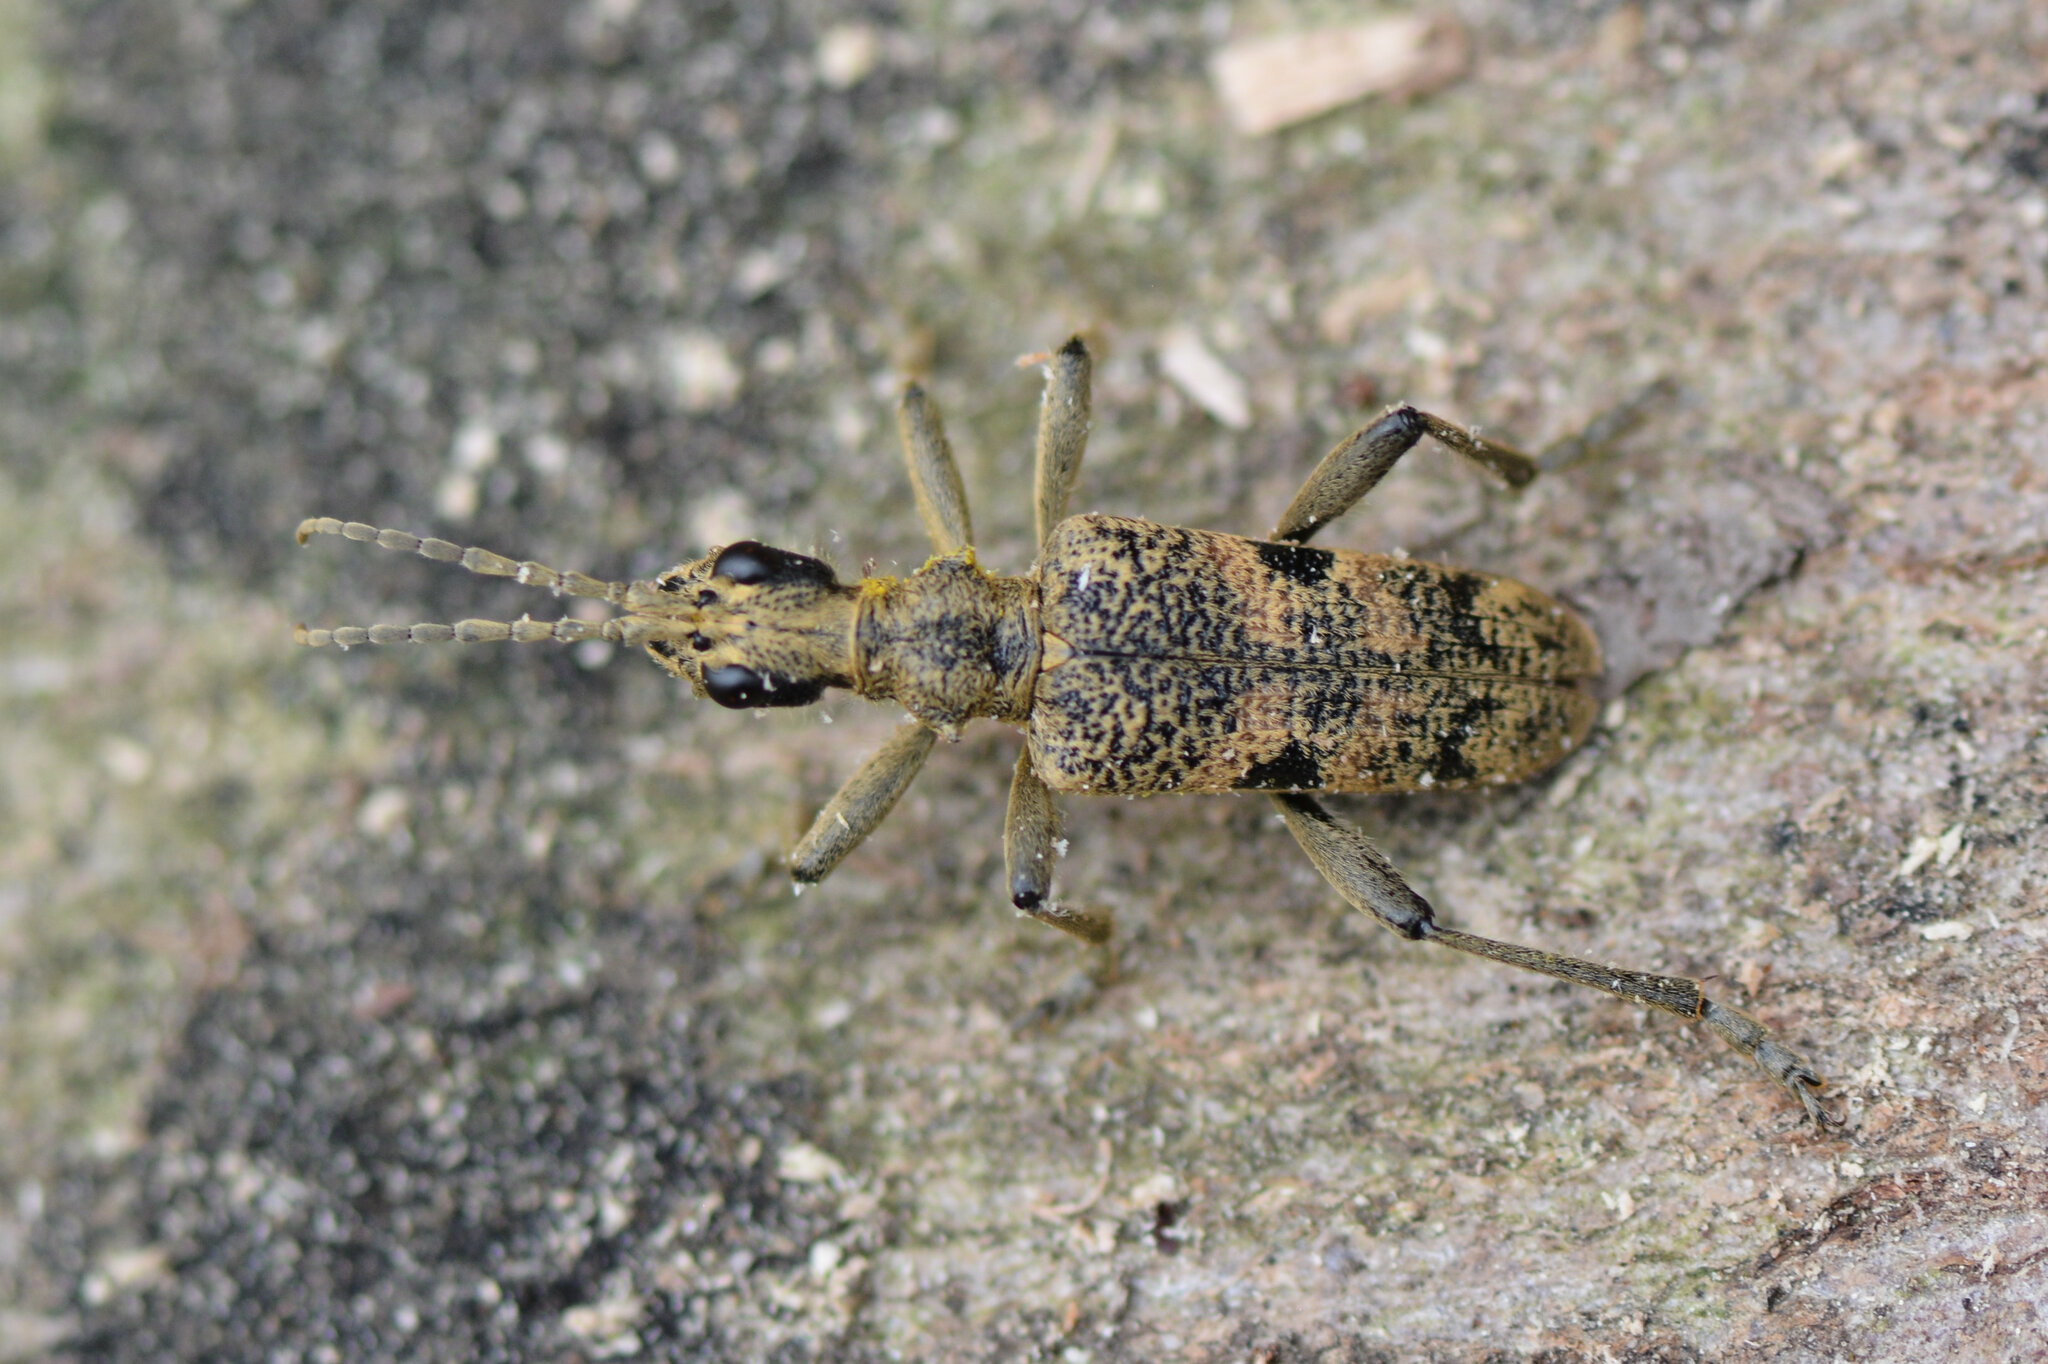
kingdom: Animalia
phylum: Arthropoda
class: Insecta
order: Coleoptera
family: Cerambycidae
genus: Rhagium
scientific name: Rhagium mordax
